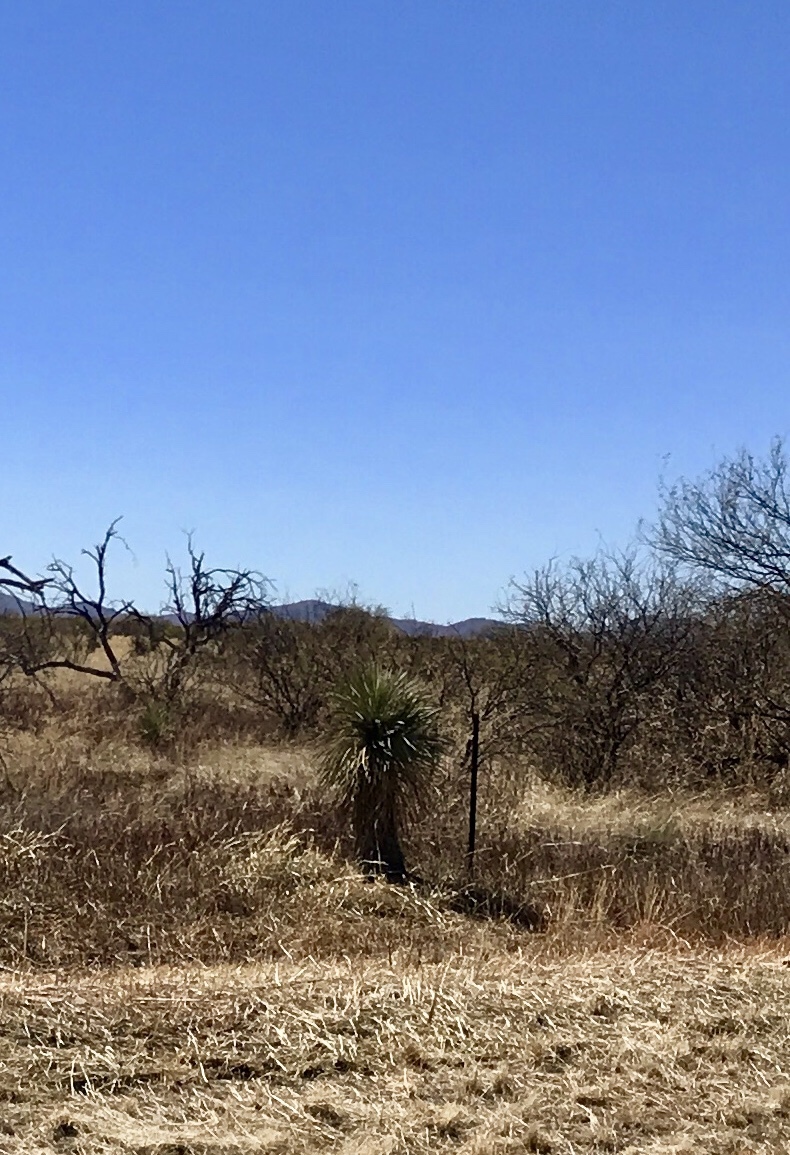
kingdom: Plantae
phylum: Tracheophyta
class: Liliopsida
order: Asparagales
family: Asparagaceae
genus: Yucca
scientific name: Yucca elata
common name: Palmella
